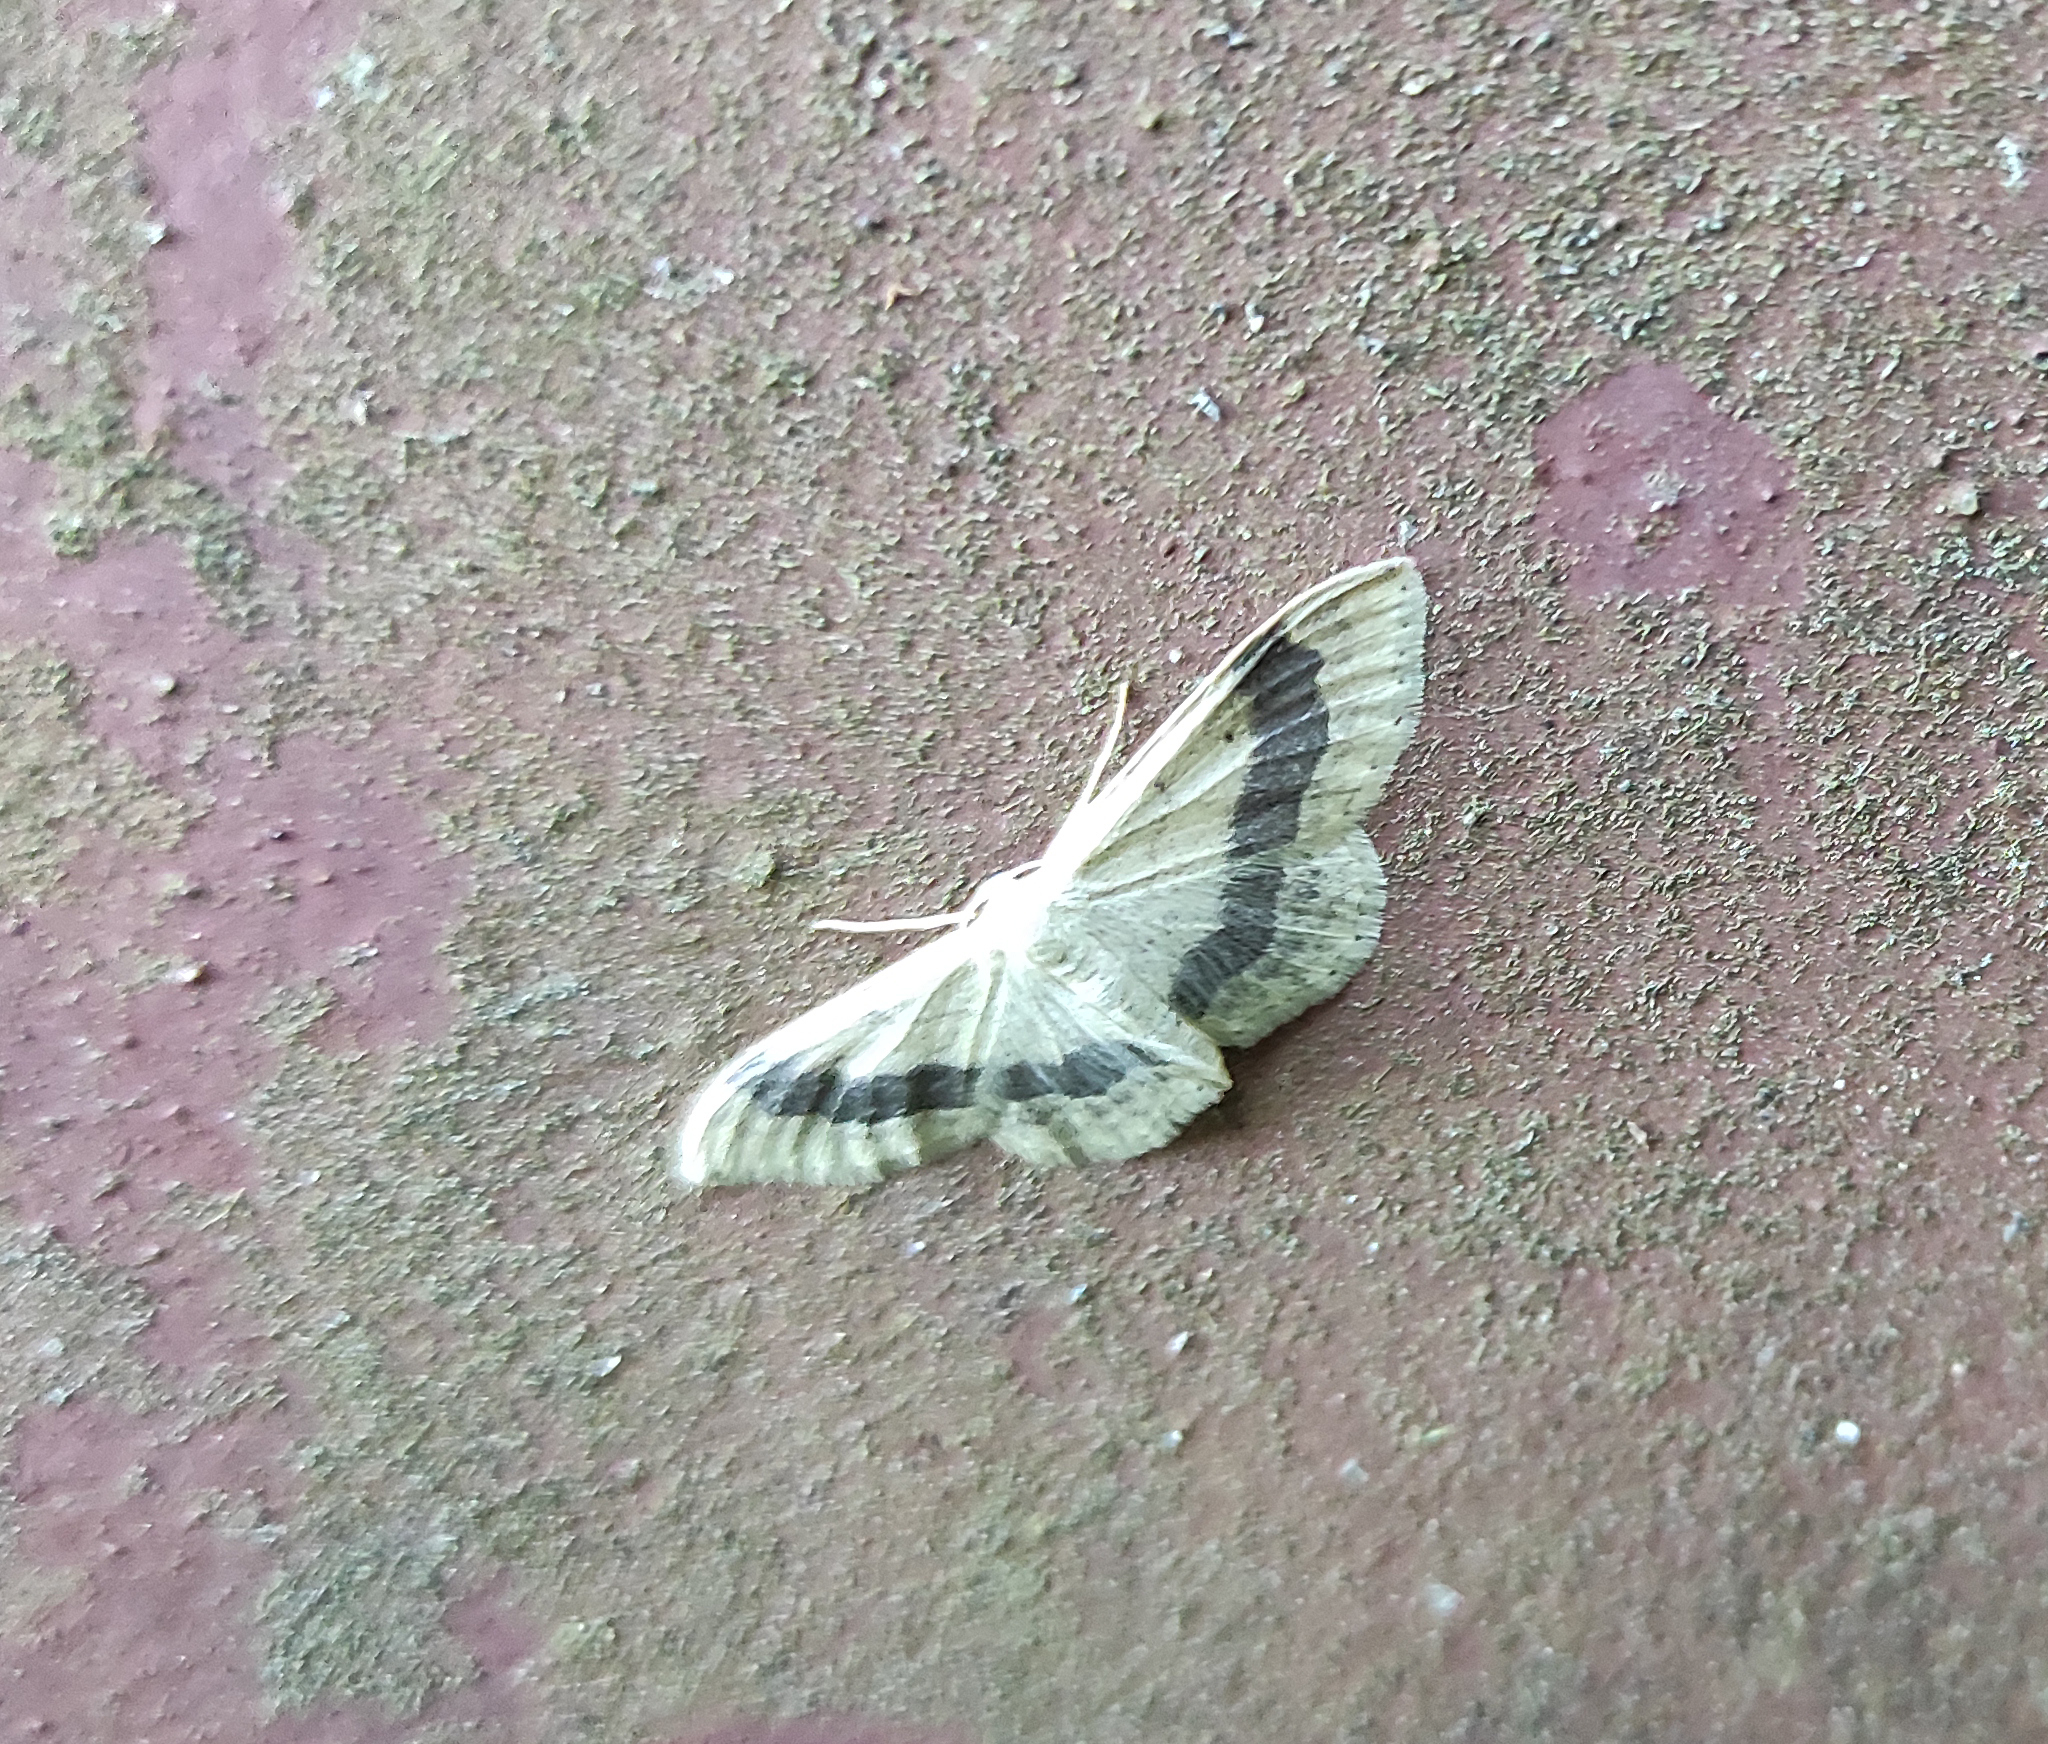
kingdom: Animalia
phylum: Arthropoda
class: Insecta
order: Lepidoptera
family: Geometridae
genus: Idaea
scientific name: Idaea aversata
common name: Riband wave
